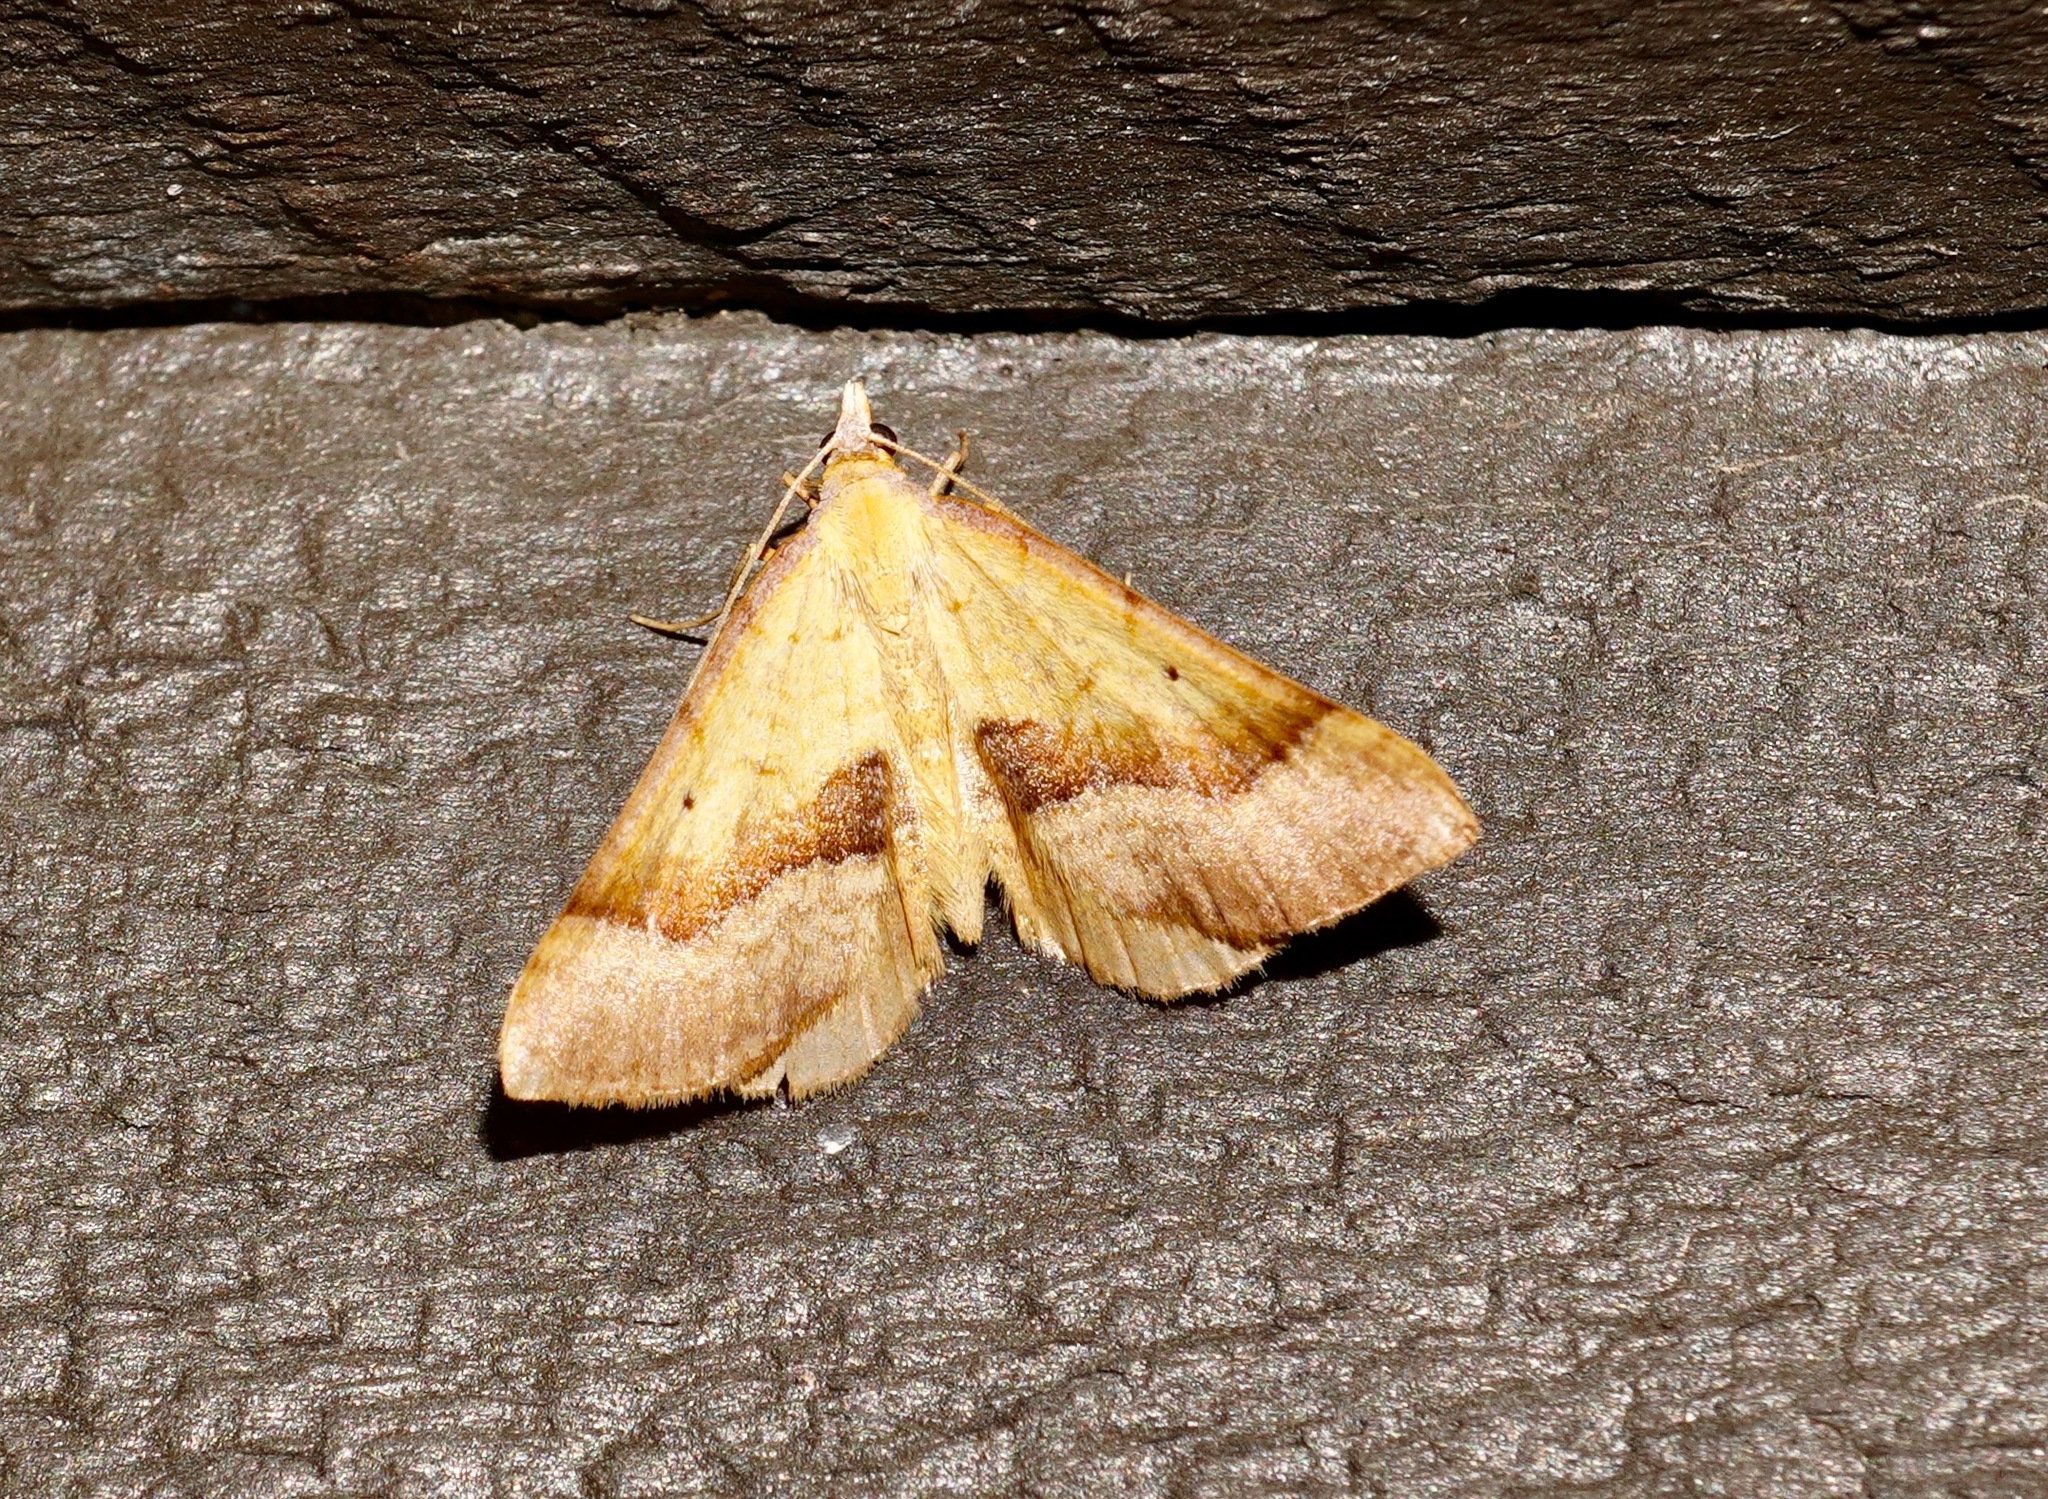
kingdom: Animalia
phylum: Arthropoda
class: Insecta
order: Lepidoptera
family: Geometridae
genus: Anachloris
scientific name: Anachloris subochraria
